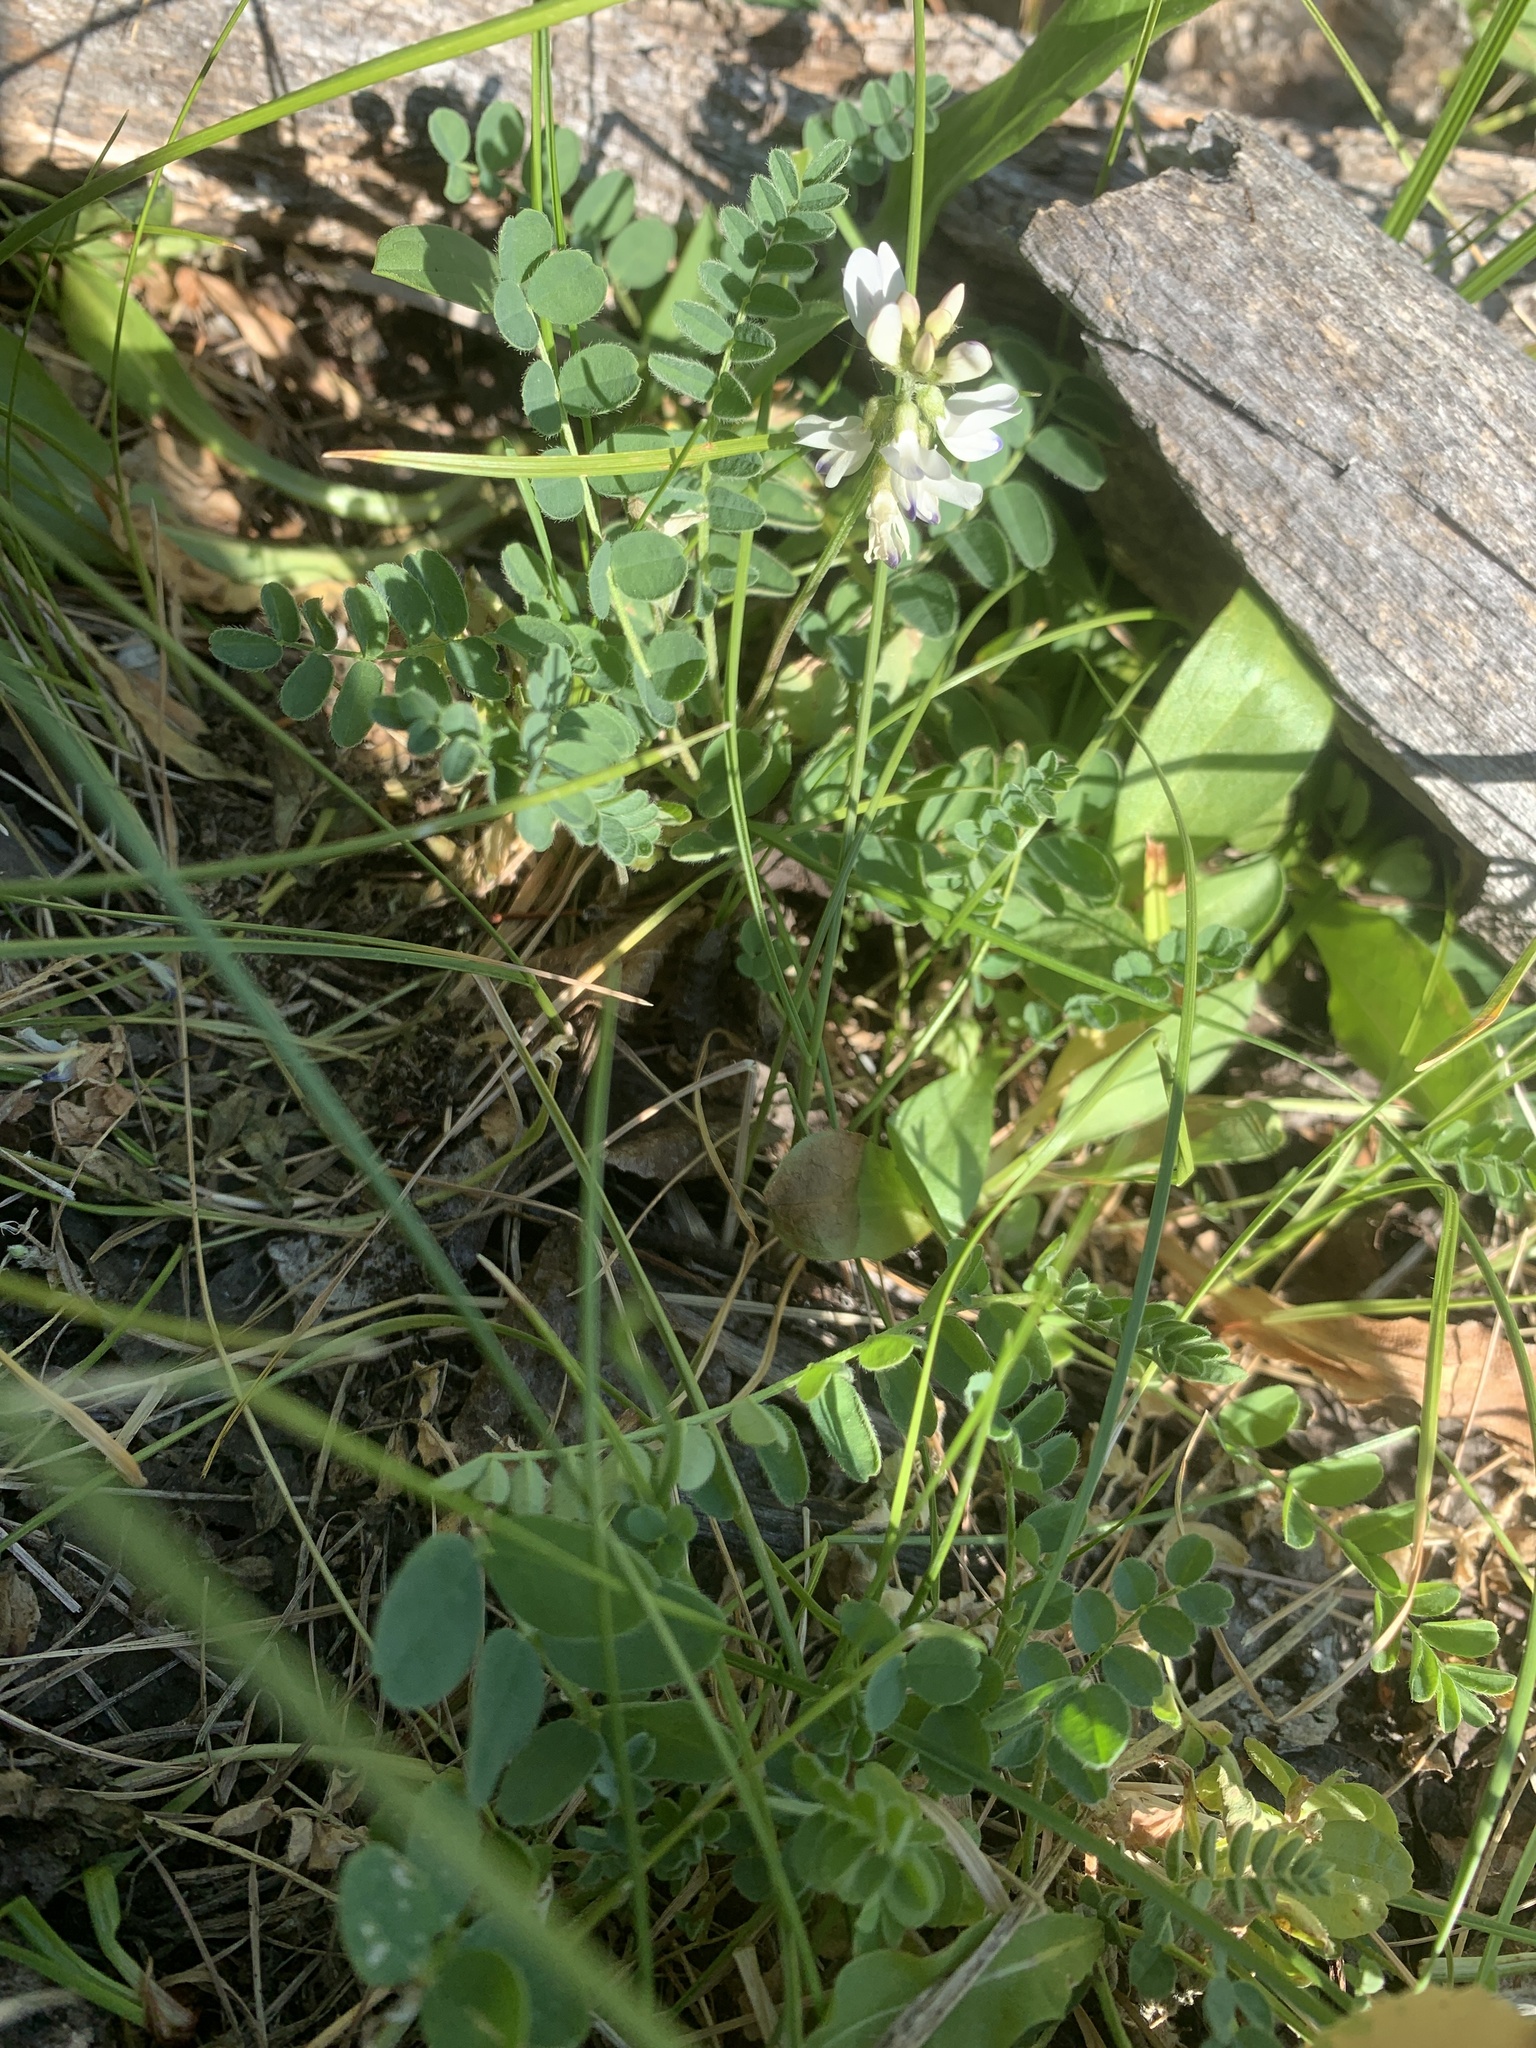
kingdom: Plantae
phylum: Tracheophyta
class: Magnoliopsida
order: Fabales
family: Fabaceae
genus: Astragalus
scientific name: Astragalus alpinus
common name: Alpine milk-vetch
